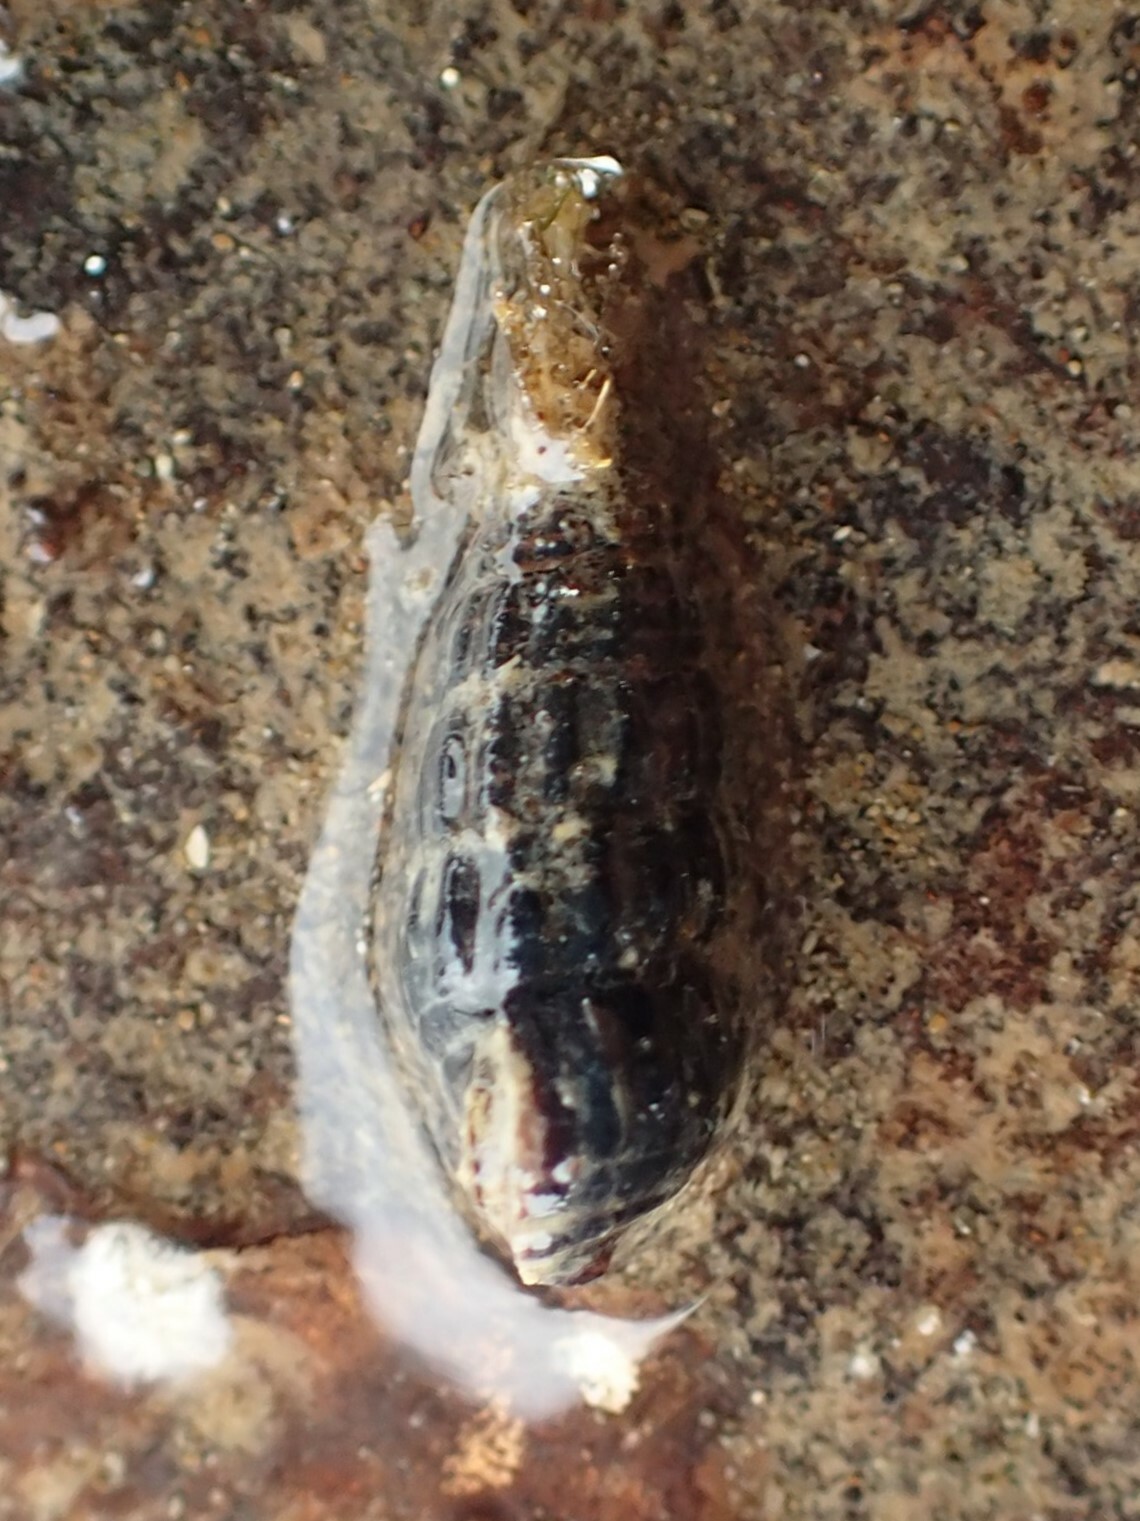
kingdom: Animalia
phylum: Mollusca
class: Gastropoda
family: Batillariidae
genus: Zeacumantus
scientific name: Zeacumantus subcarinatus
